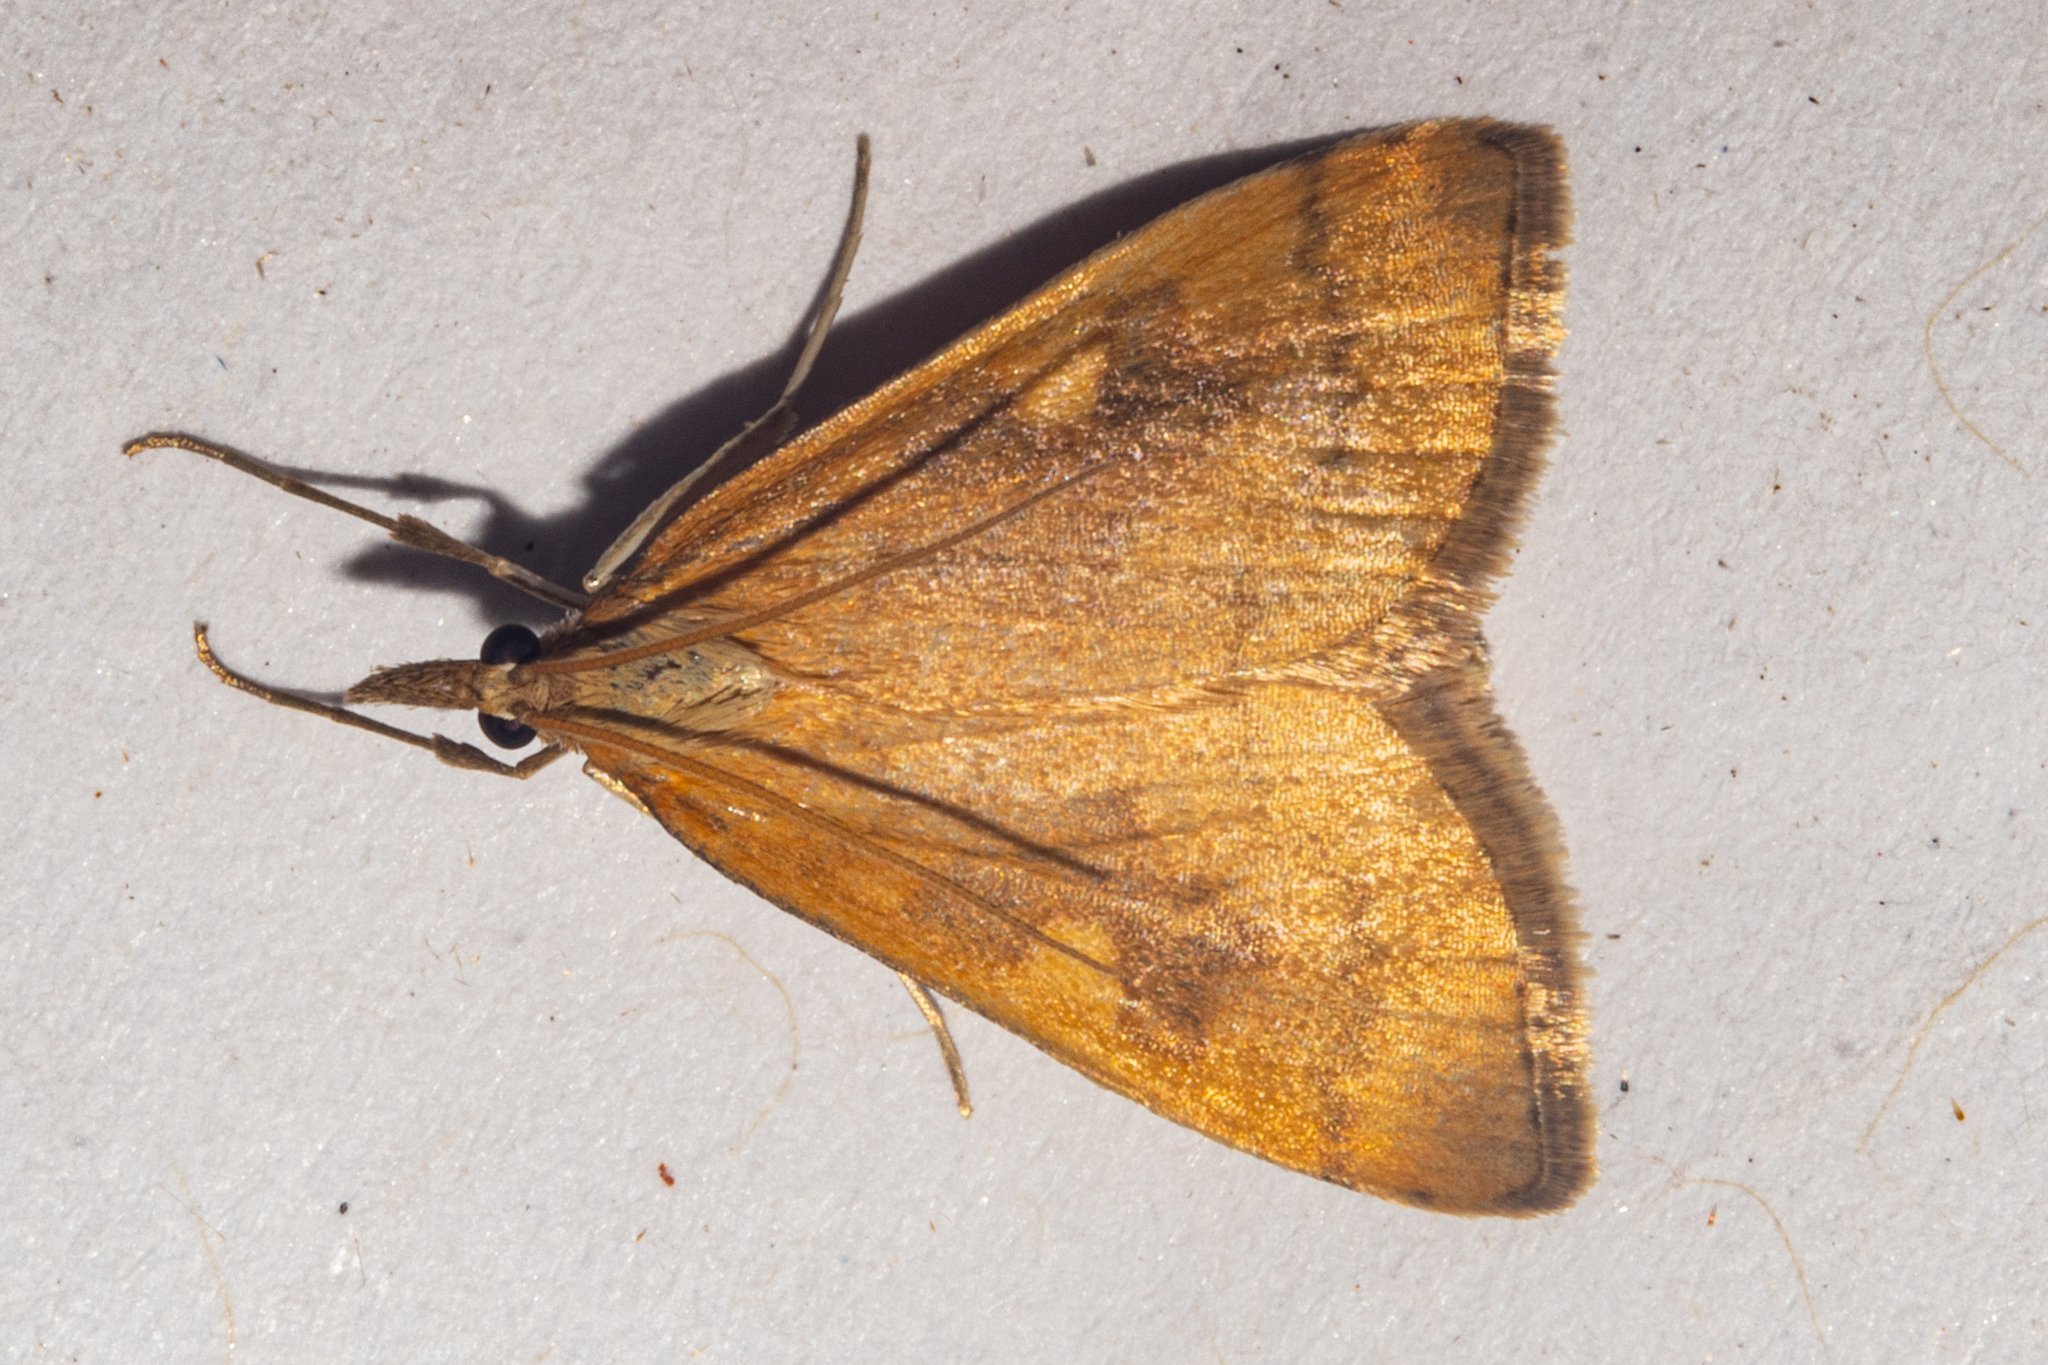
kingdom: Animalia
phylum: Arthropoda
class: Insecta
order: Lepidoptera
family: Crambidae
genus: Udea
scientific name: Udea Mnesictena flavidalis
